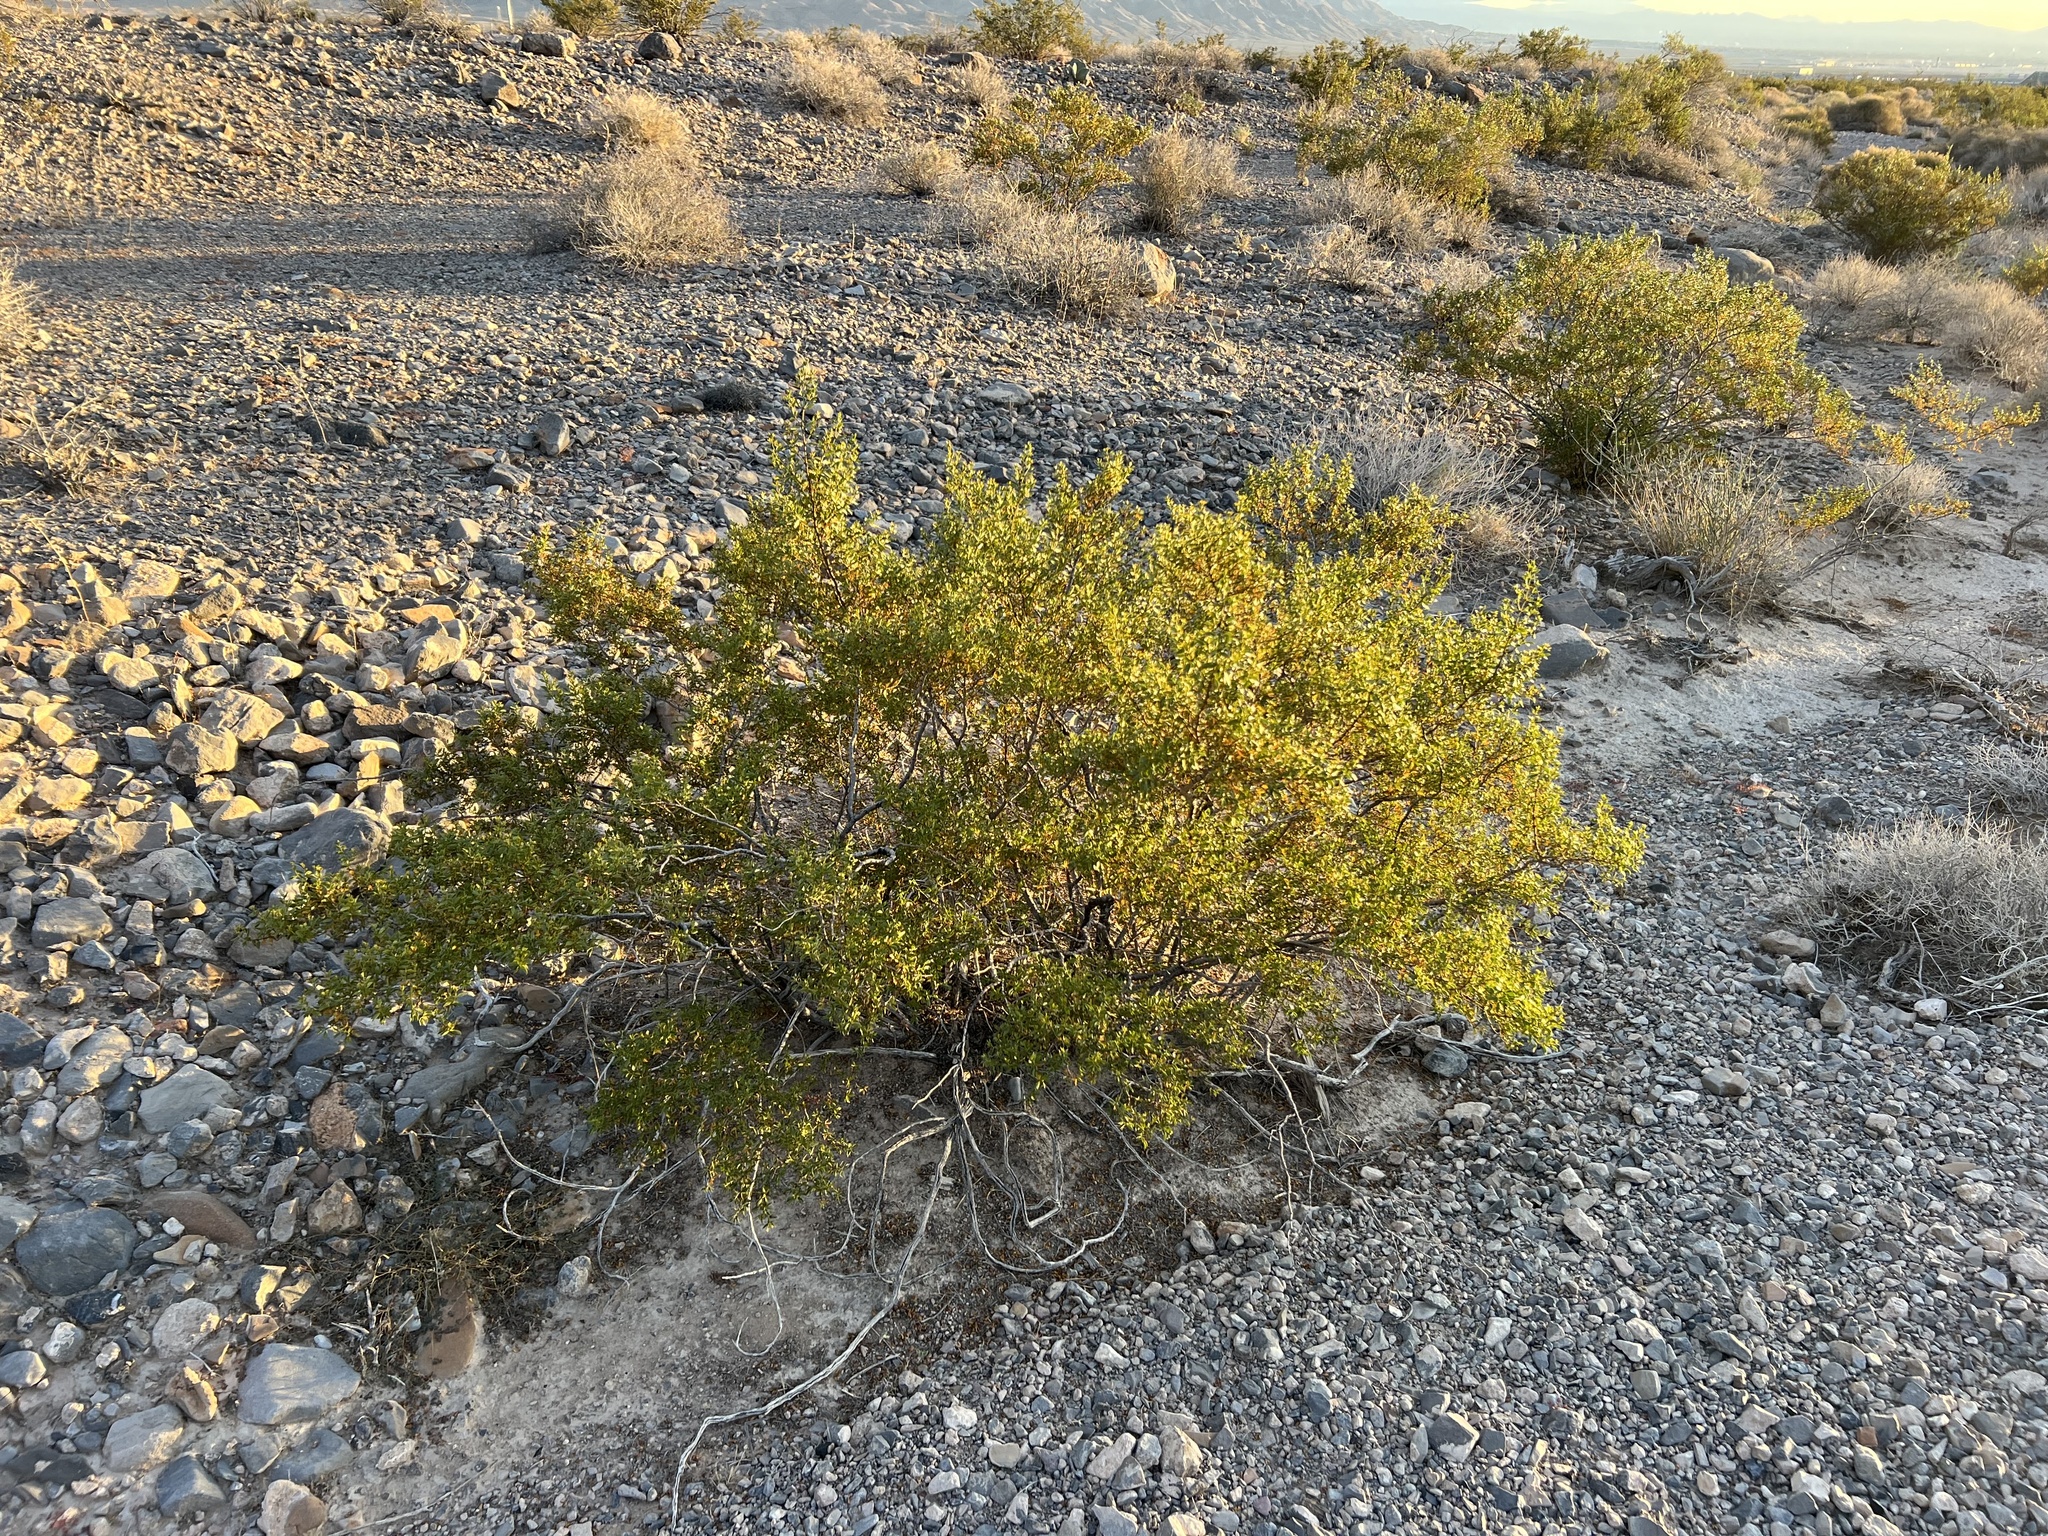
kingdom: Plantae
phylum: Tracheophyta
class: Magnoliopsida
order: Zygophyllales
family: Zygophyllaceae
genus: Larrea
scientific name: Larrea tridentata
